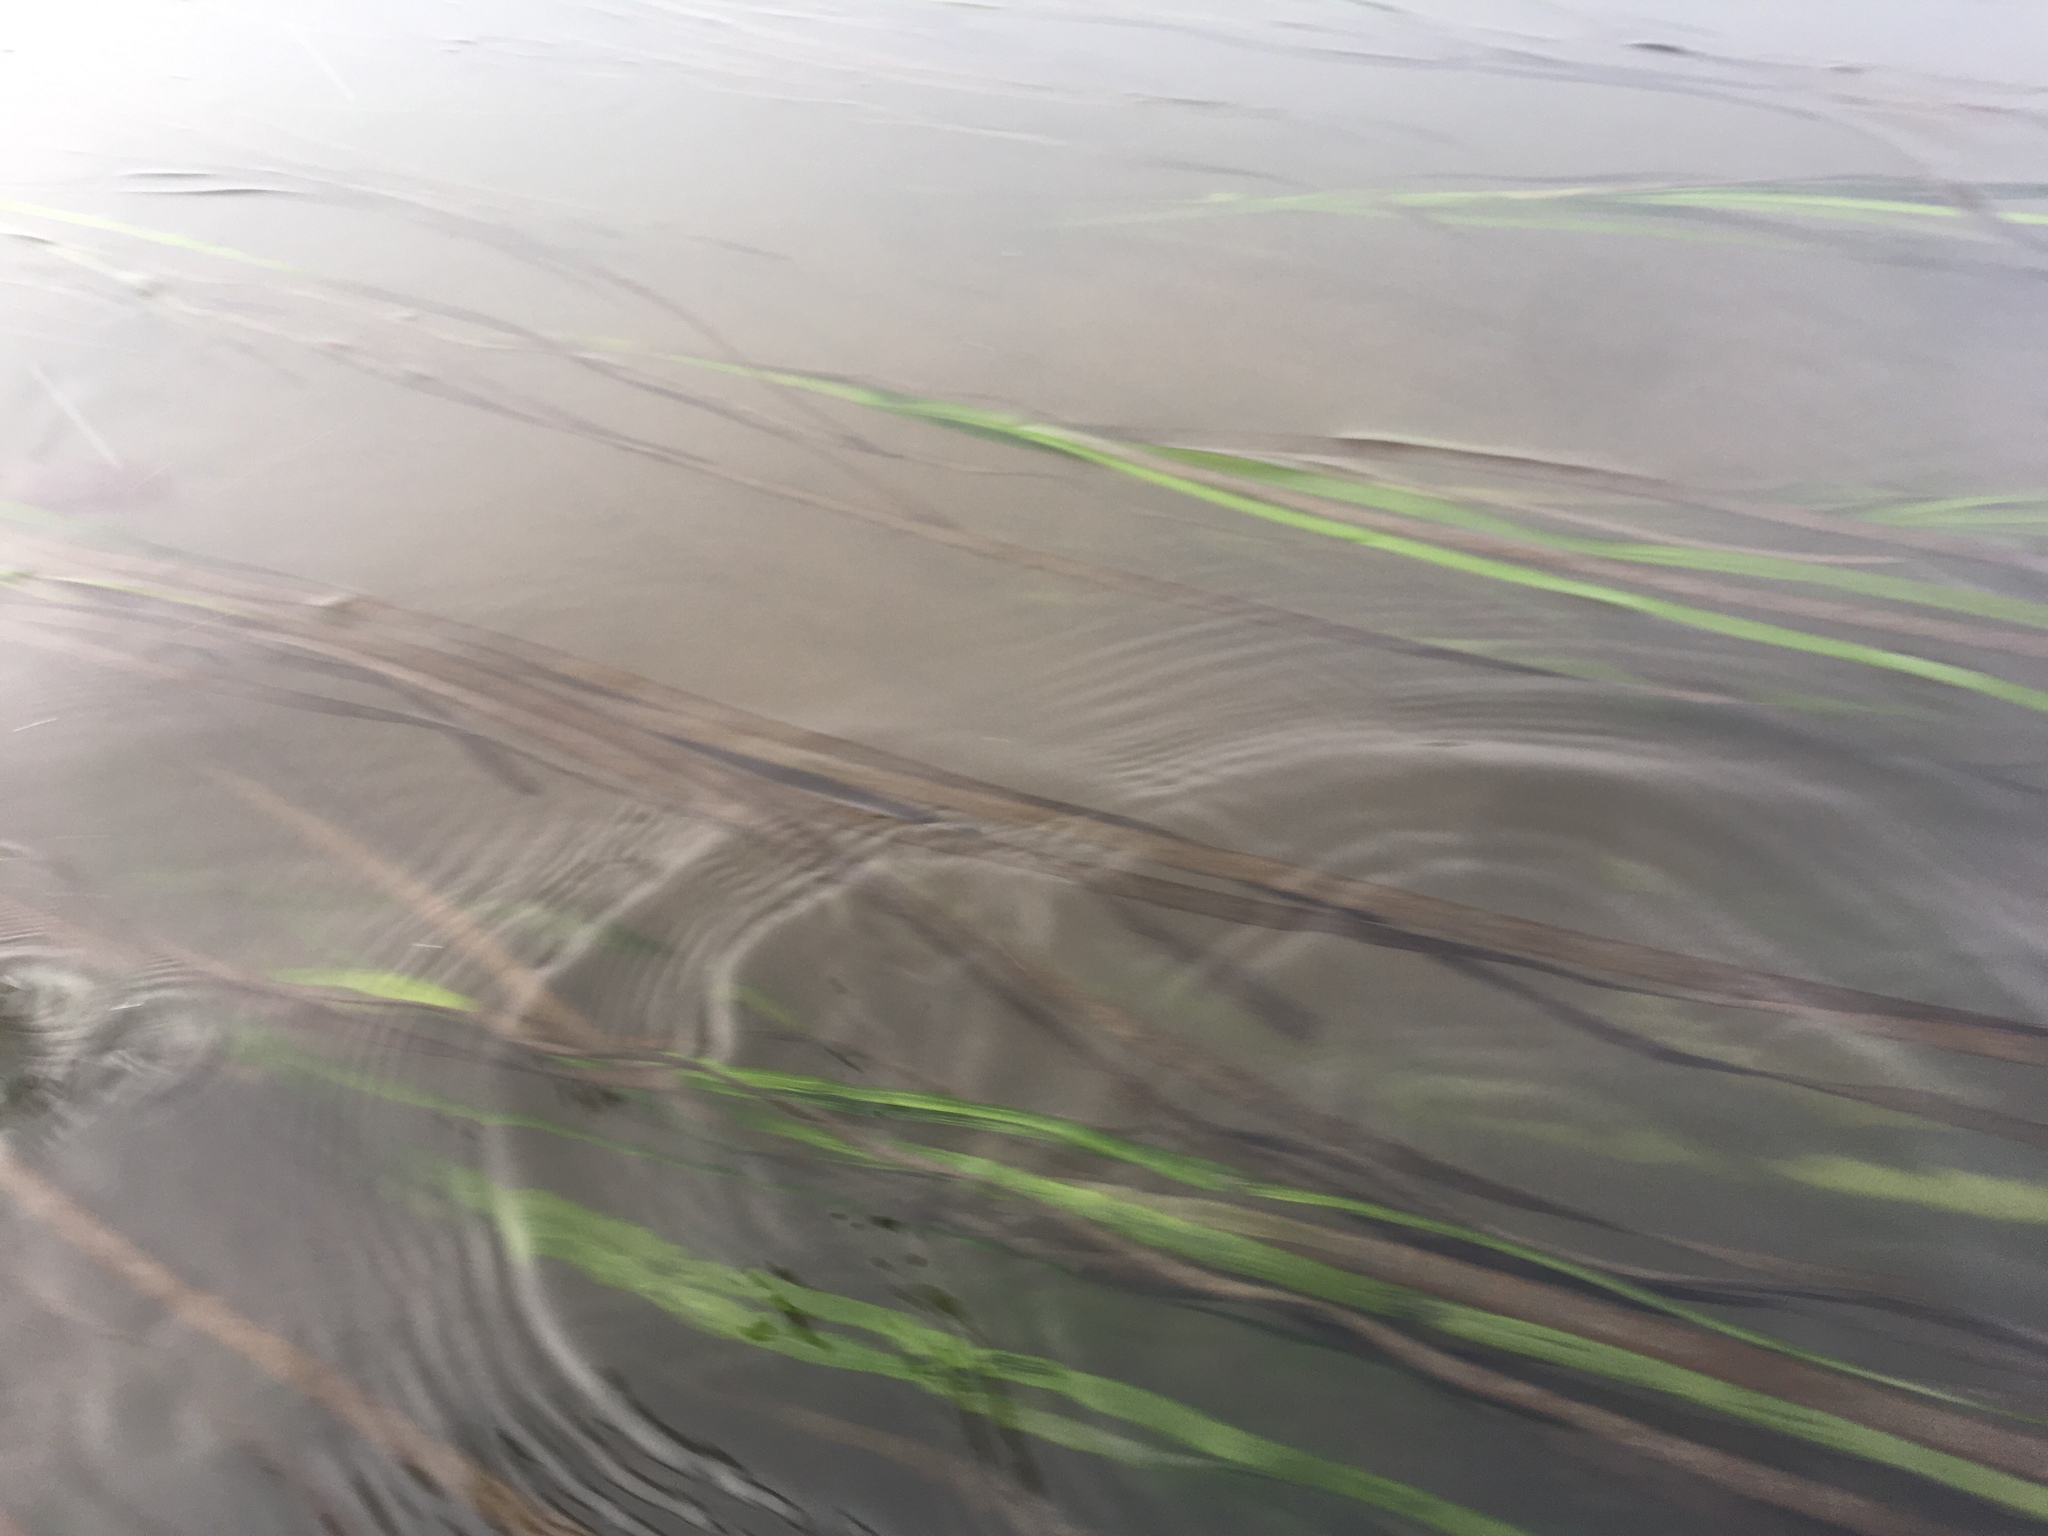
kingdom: Plantae
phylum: Tracheophyta
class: Liliopsida
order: Alismatales
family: Zosteraceae
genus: Zostera
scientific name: Zostera marina
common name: Eelgrass
